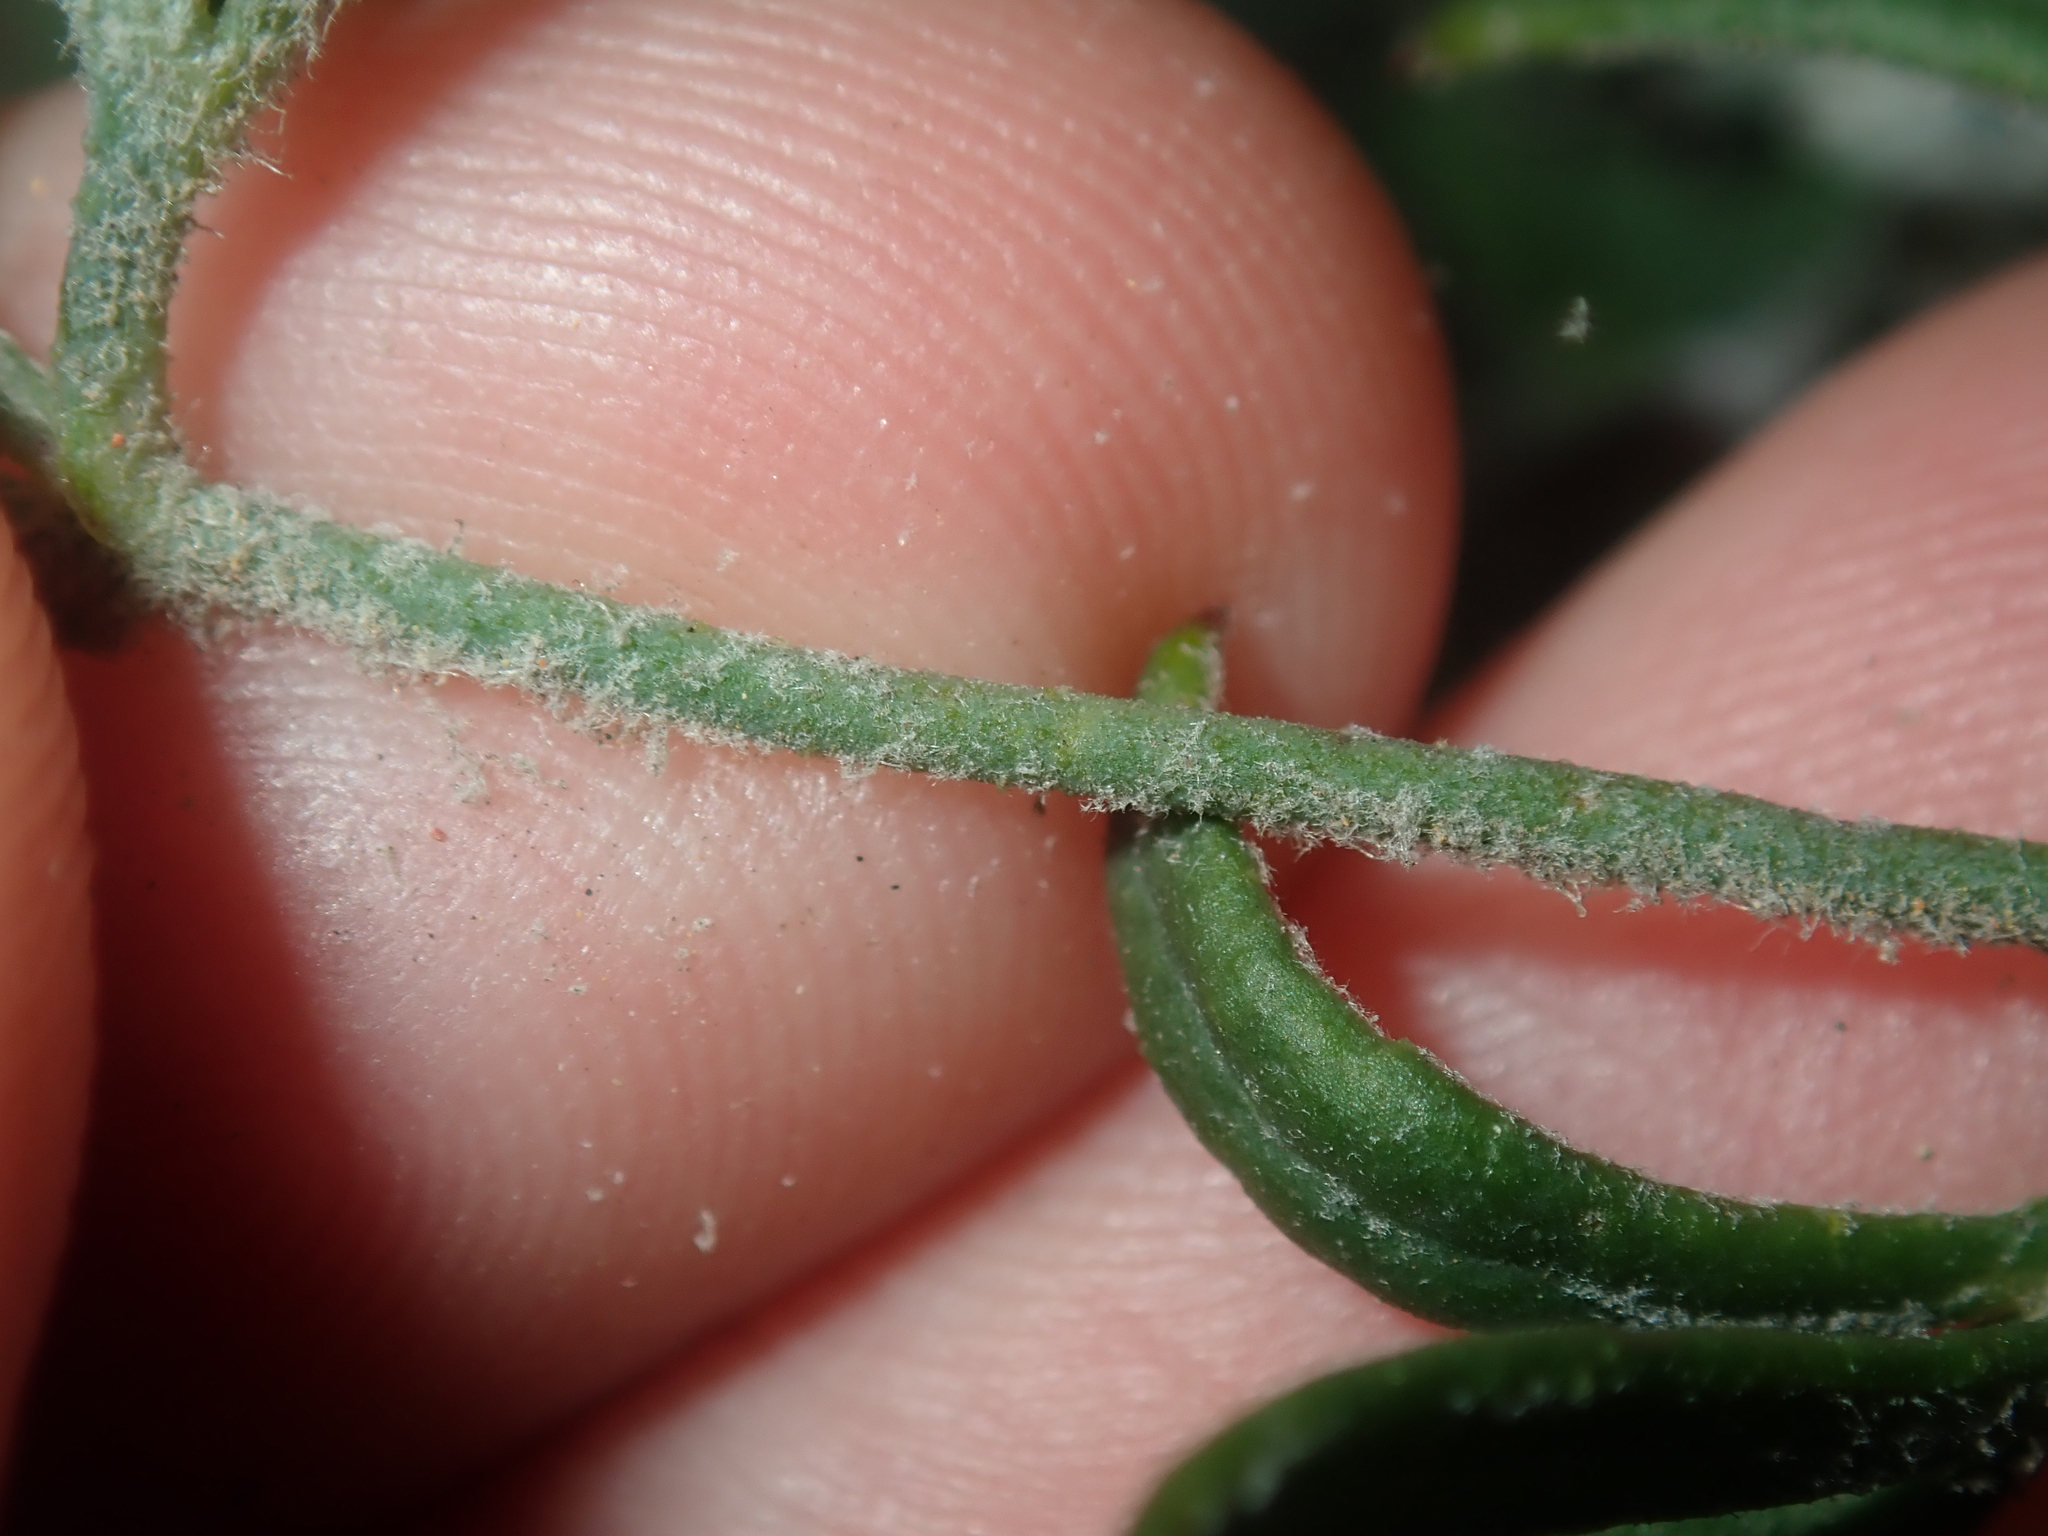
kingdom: Plantae
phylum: Tracheophyta
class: Magnoliopsida
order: Apiales
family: Apiaceae
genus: Xanthosia
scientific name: Xanthosia huegelii
